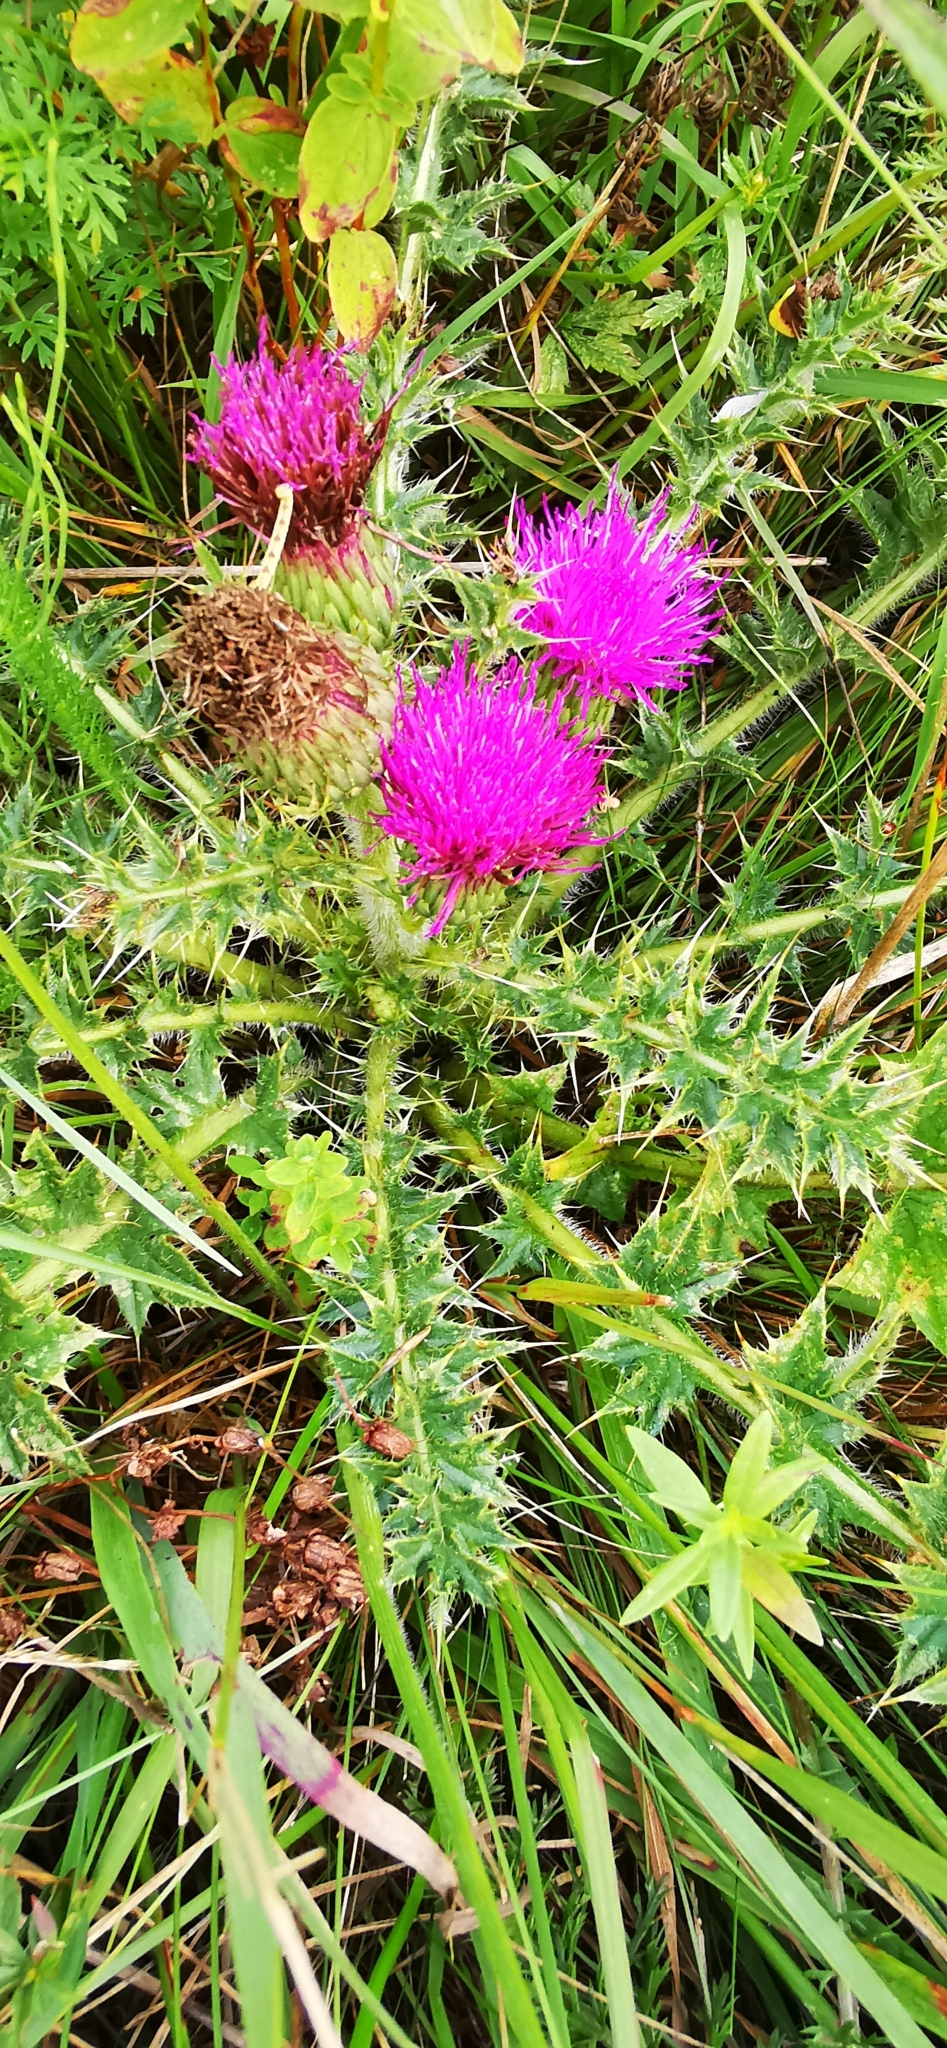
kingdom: Plantae
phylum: Tracheophyta
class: Magnoliopsida
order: Asterales
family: Asteraceae
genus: Cirsium
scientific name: Cirsium acaulon
